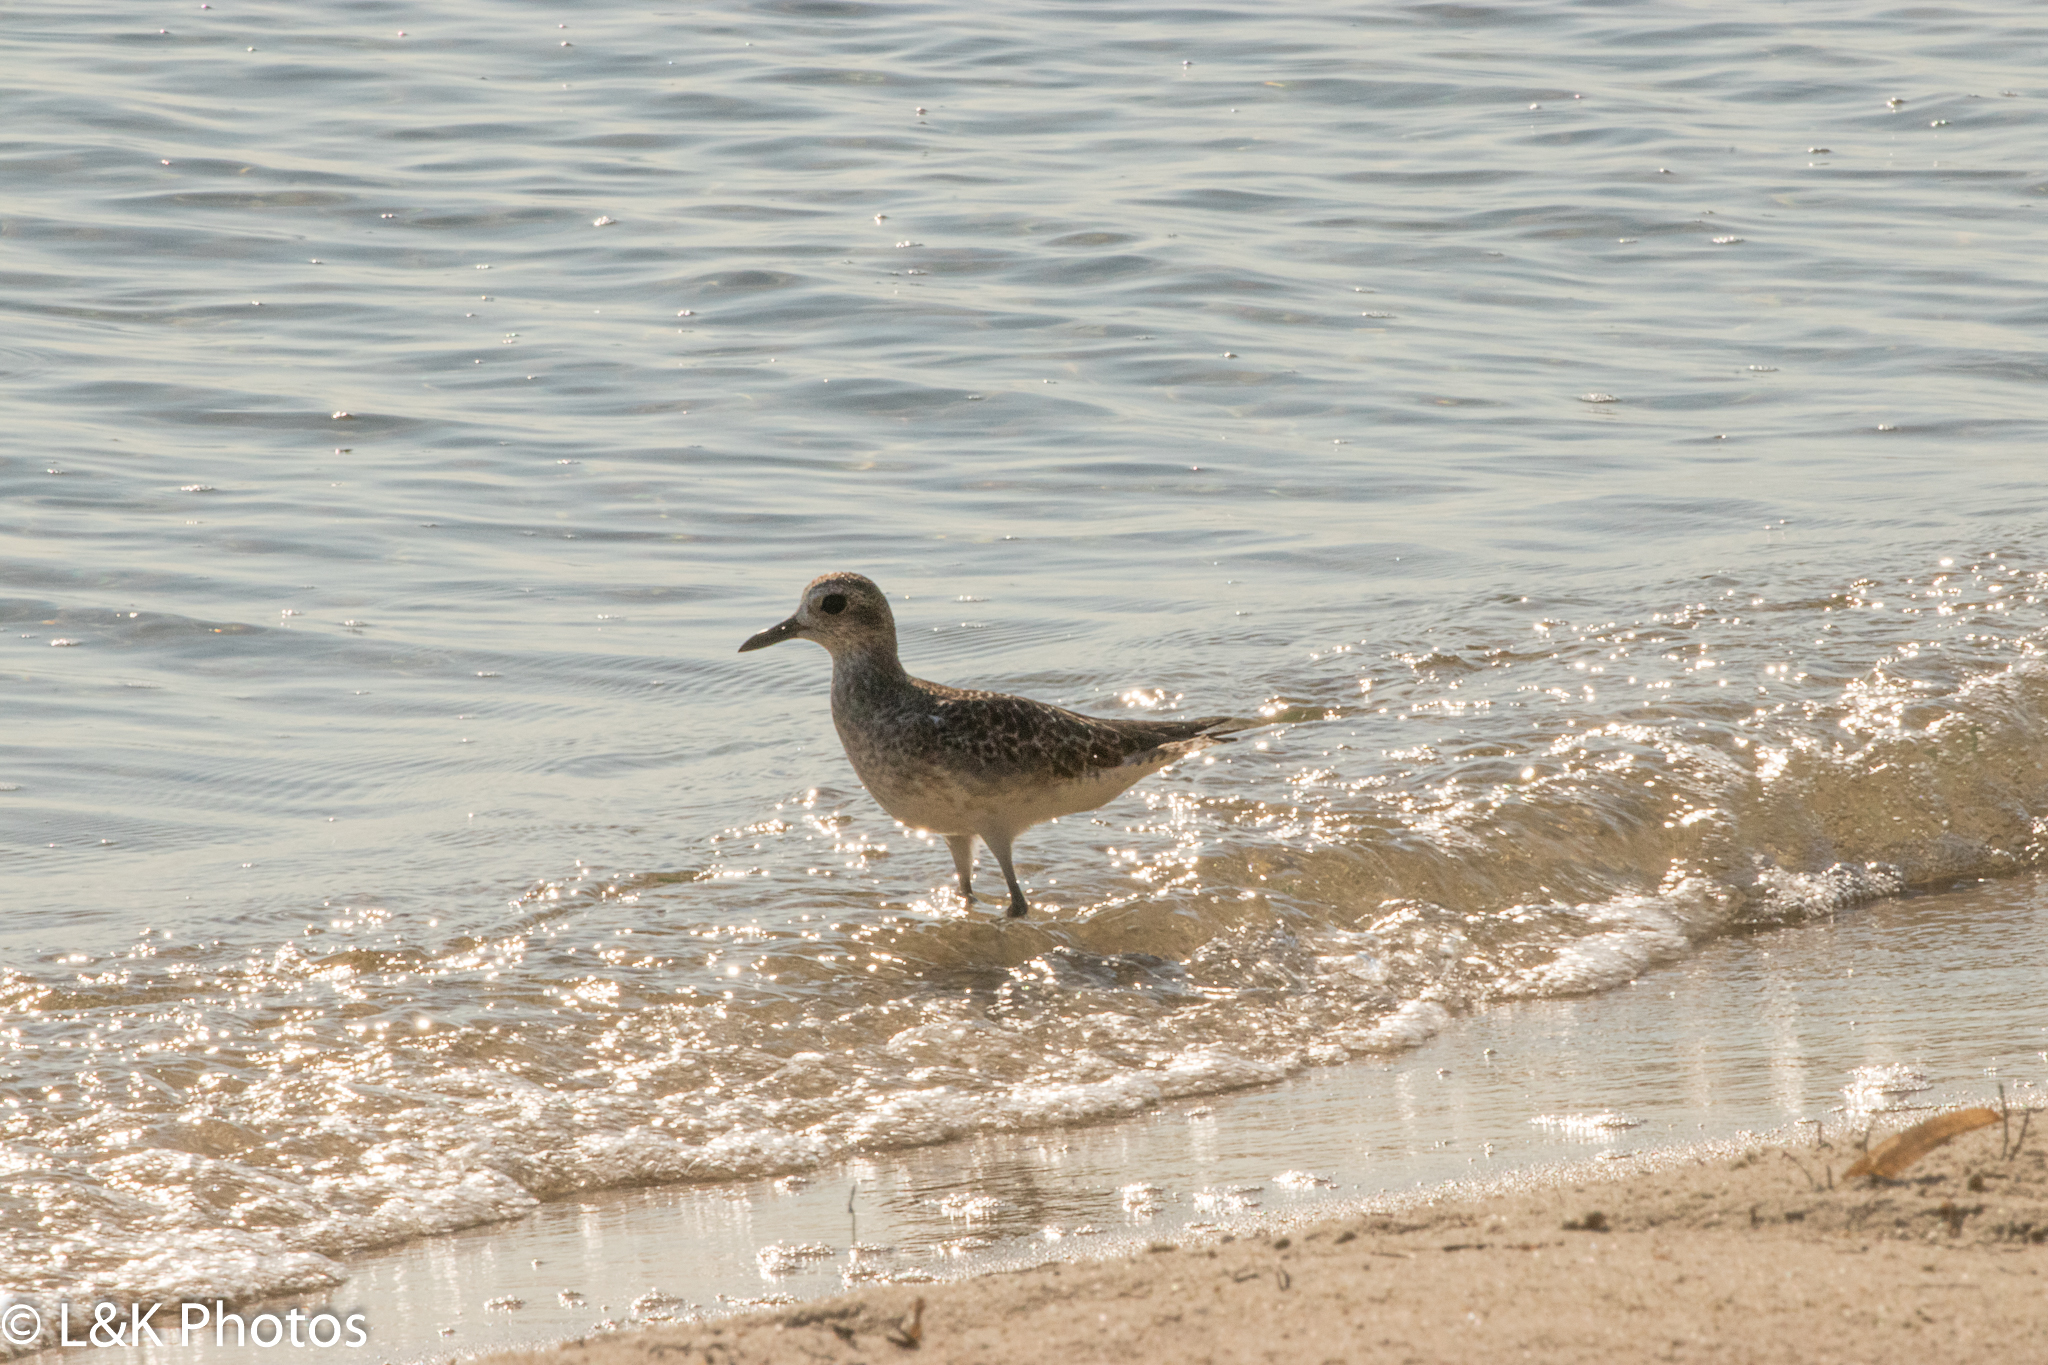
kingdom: Animalia
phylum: Chordata
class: Aves
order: Charadriiformes
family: Charadriidae
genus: Pluvialis
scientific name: Pluvialis squatarola
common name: Grey plover
